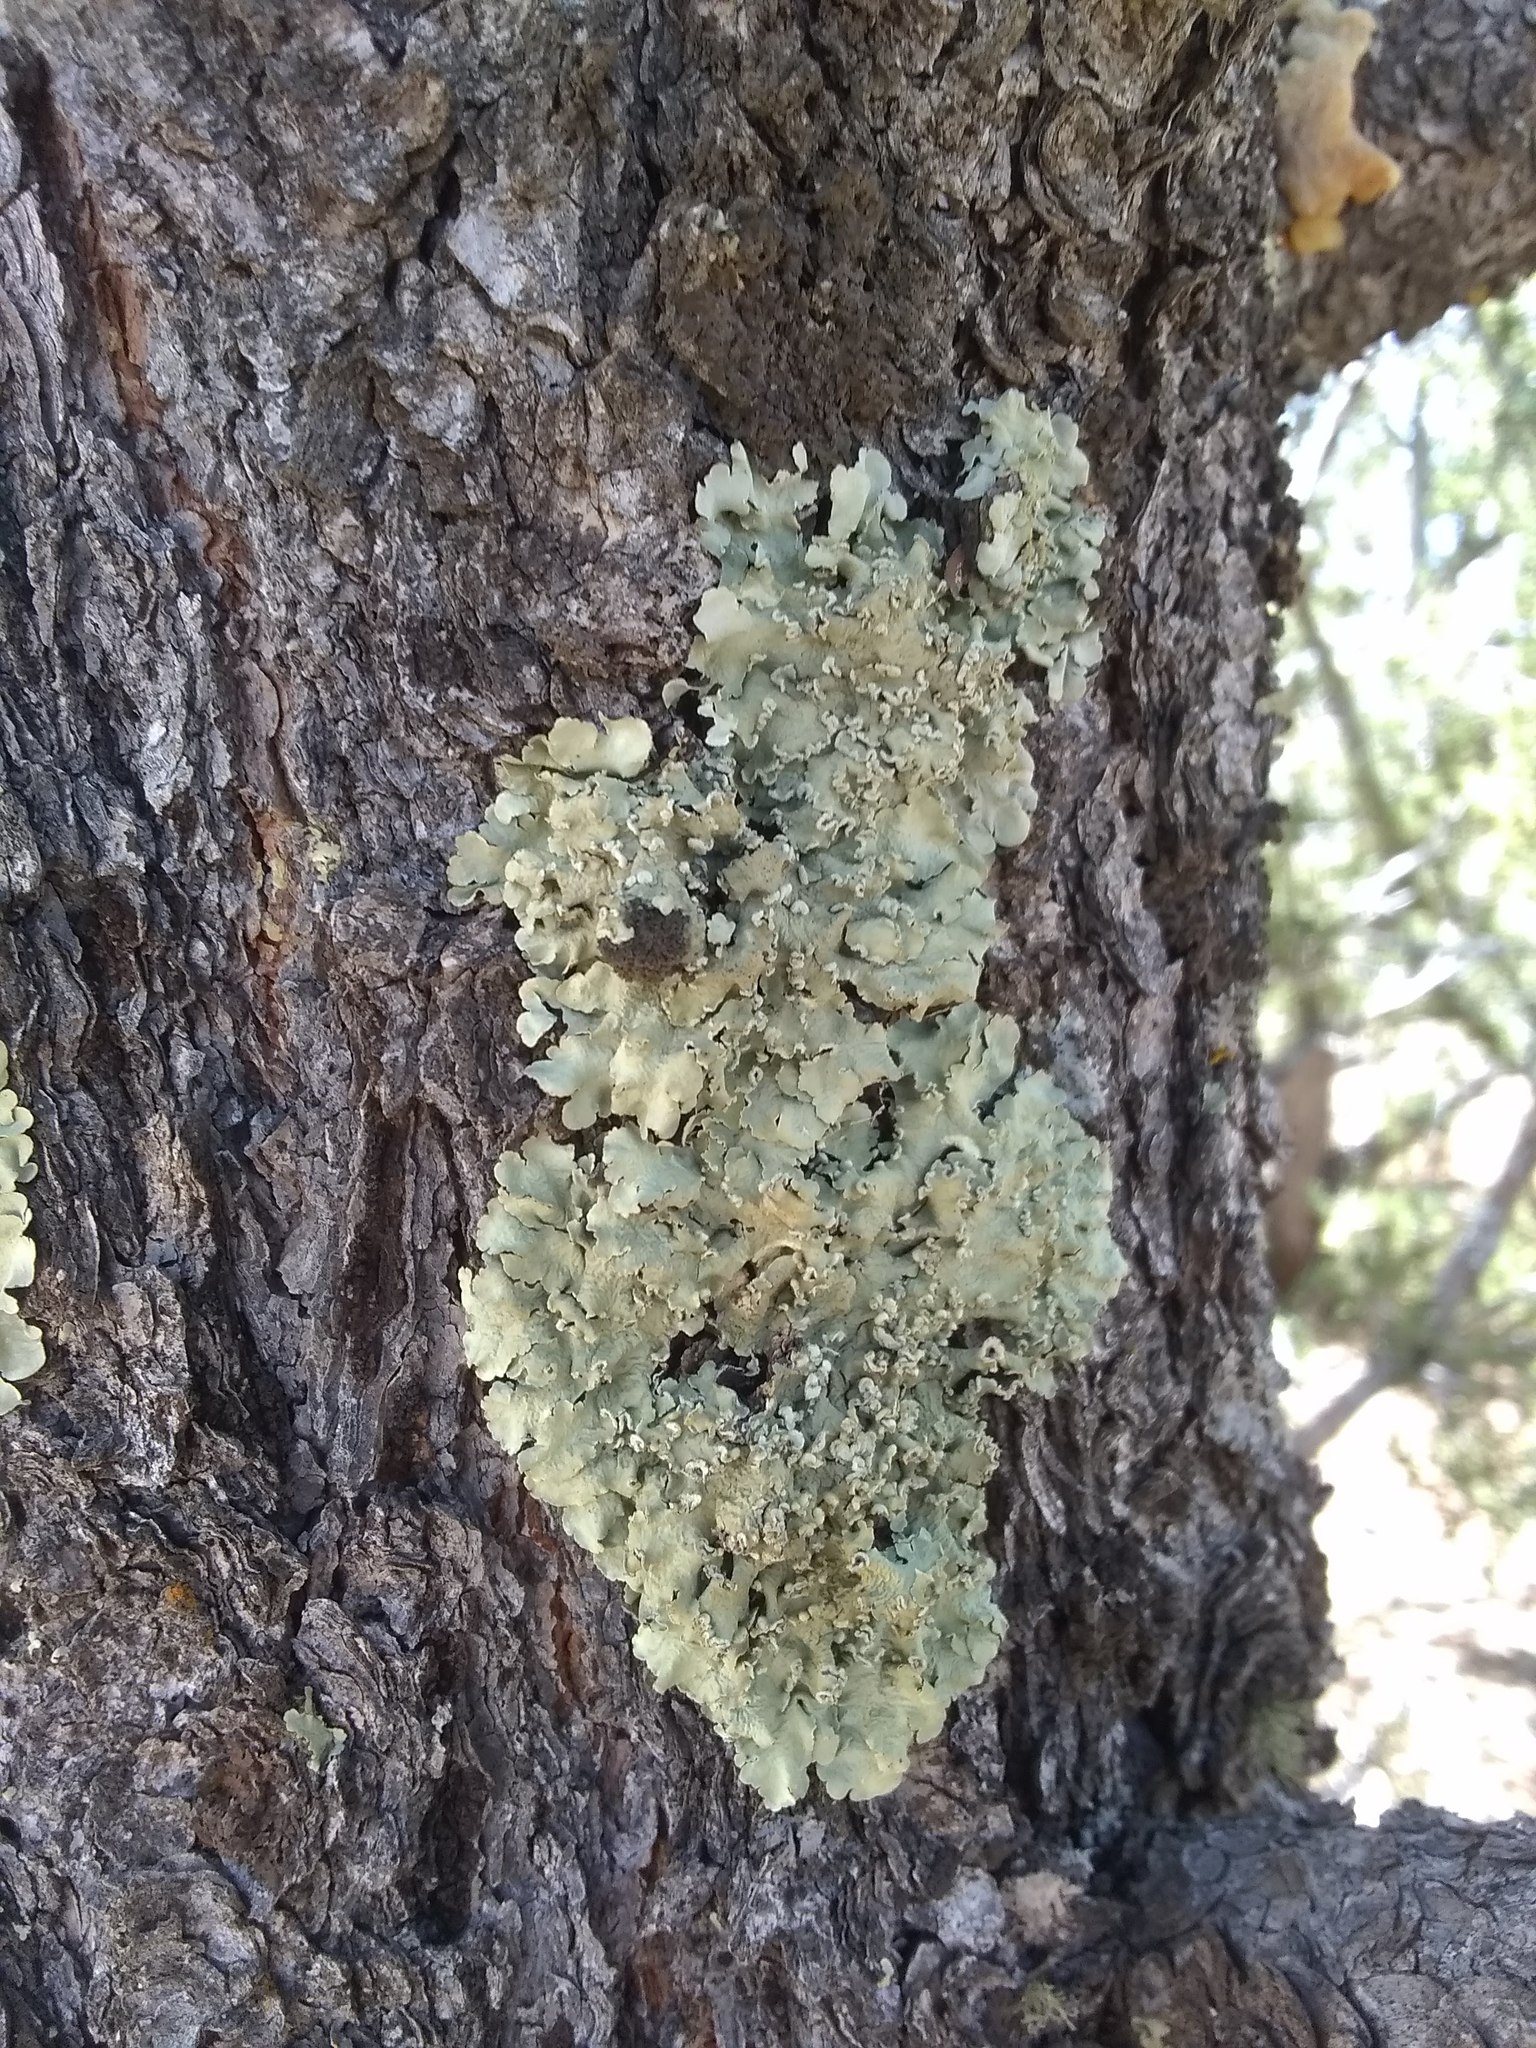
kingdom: Fungi
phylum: Ascomycota
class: Lecanoromycetes
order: Lecanorales
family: Parmeliaceae
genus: Flavoparmelia
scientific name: Flavoparmelia caperata
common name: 40-mile per hour lichen
